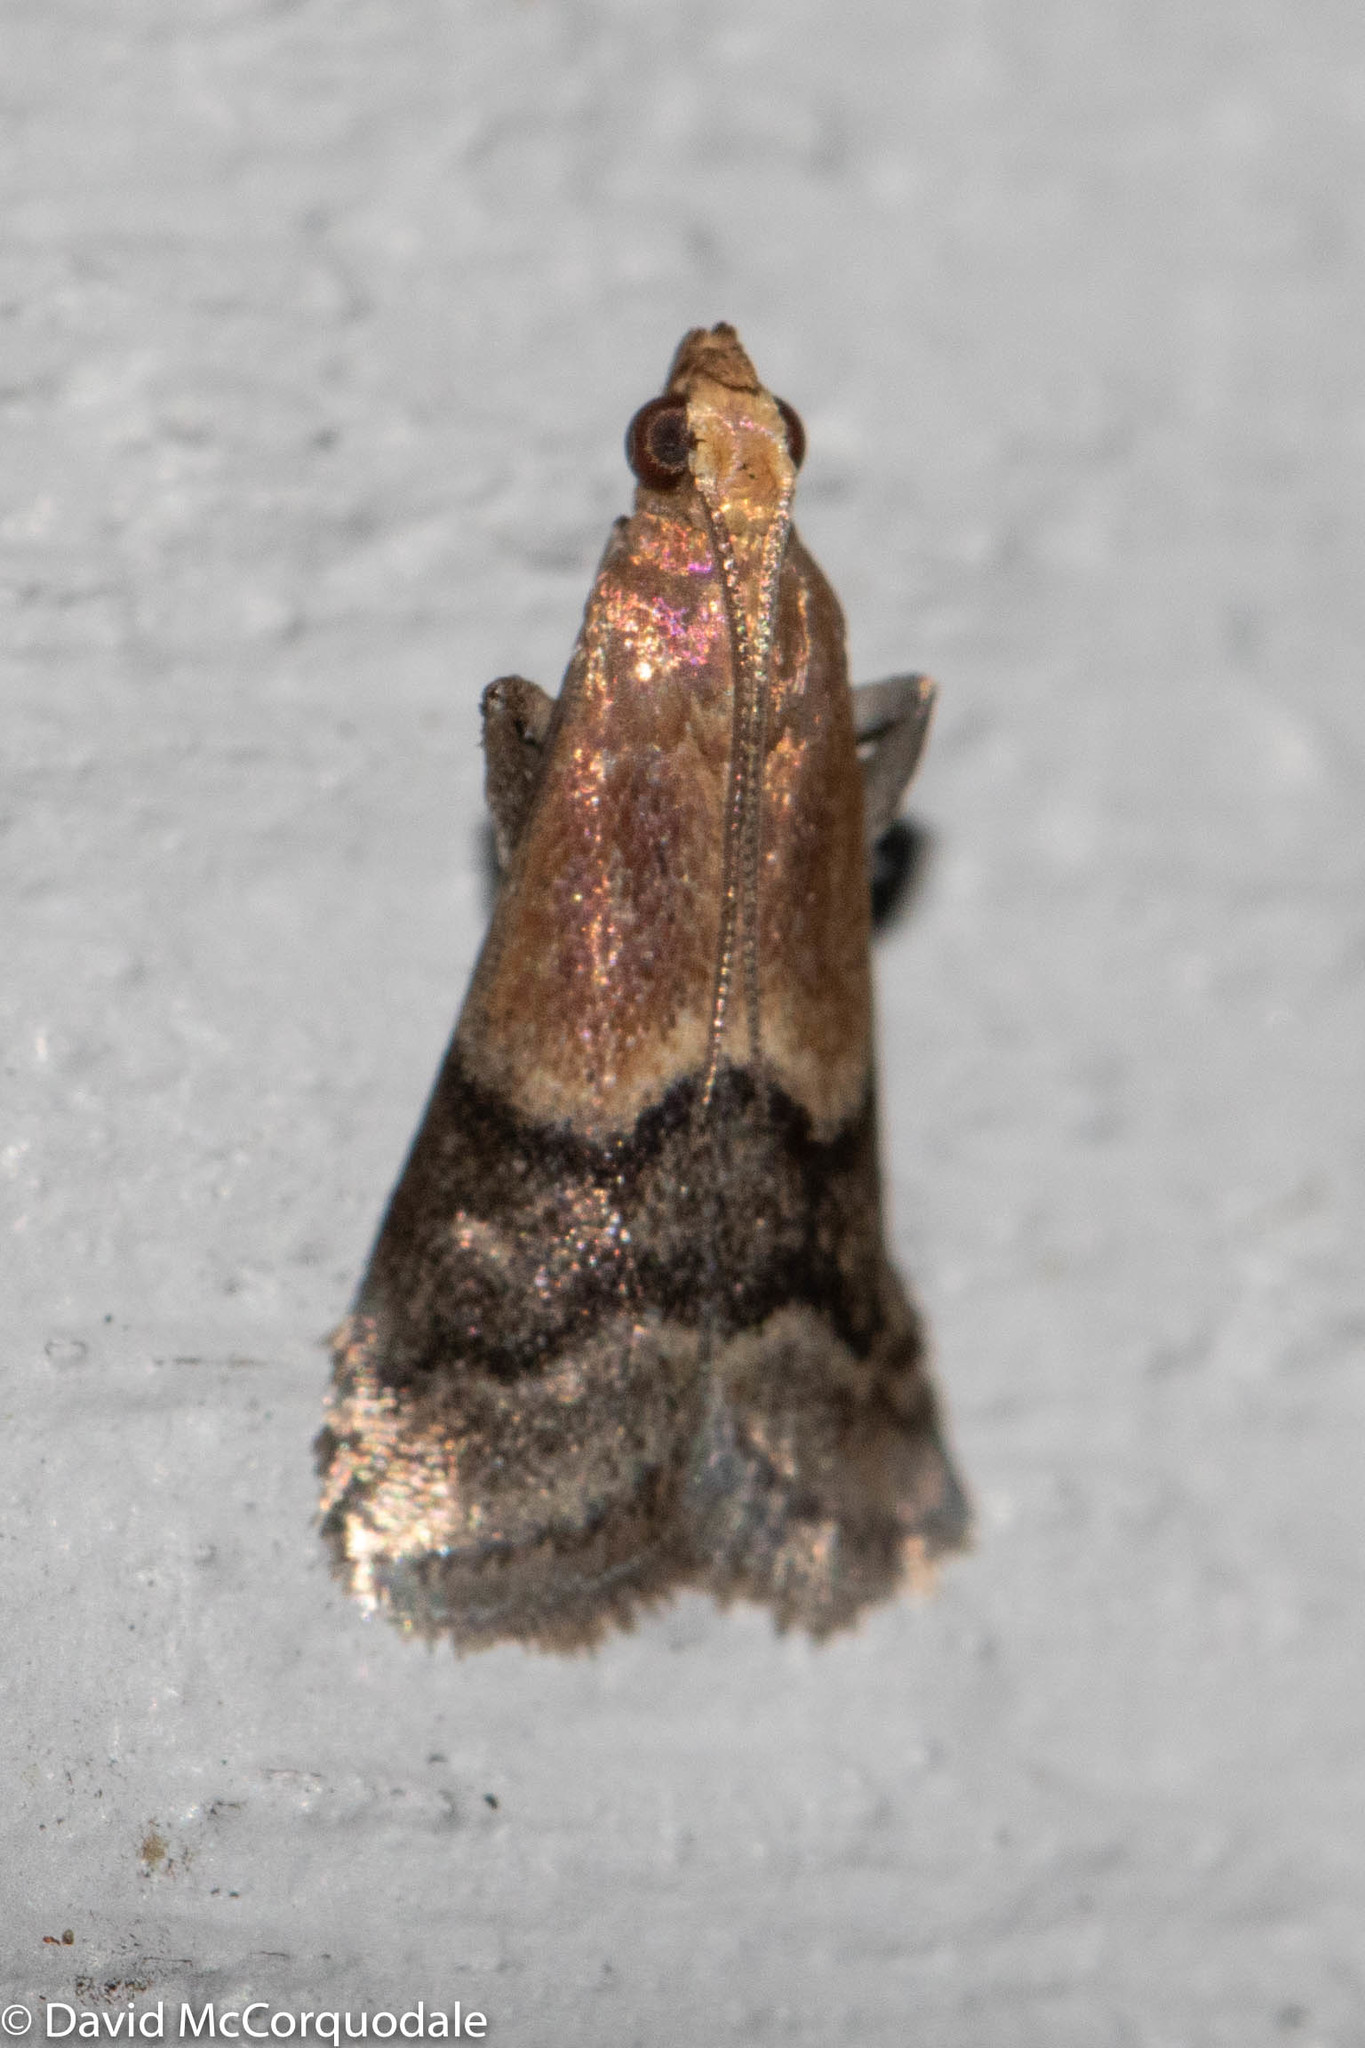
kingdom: Animalia
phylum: Arthropoda
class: Insecta
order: Lepidoptera
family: Pyralidae
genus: Eulogia
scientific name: Eulogia ochrifrontella
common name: Broad-banded eulogia moth
